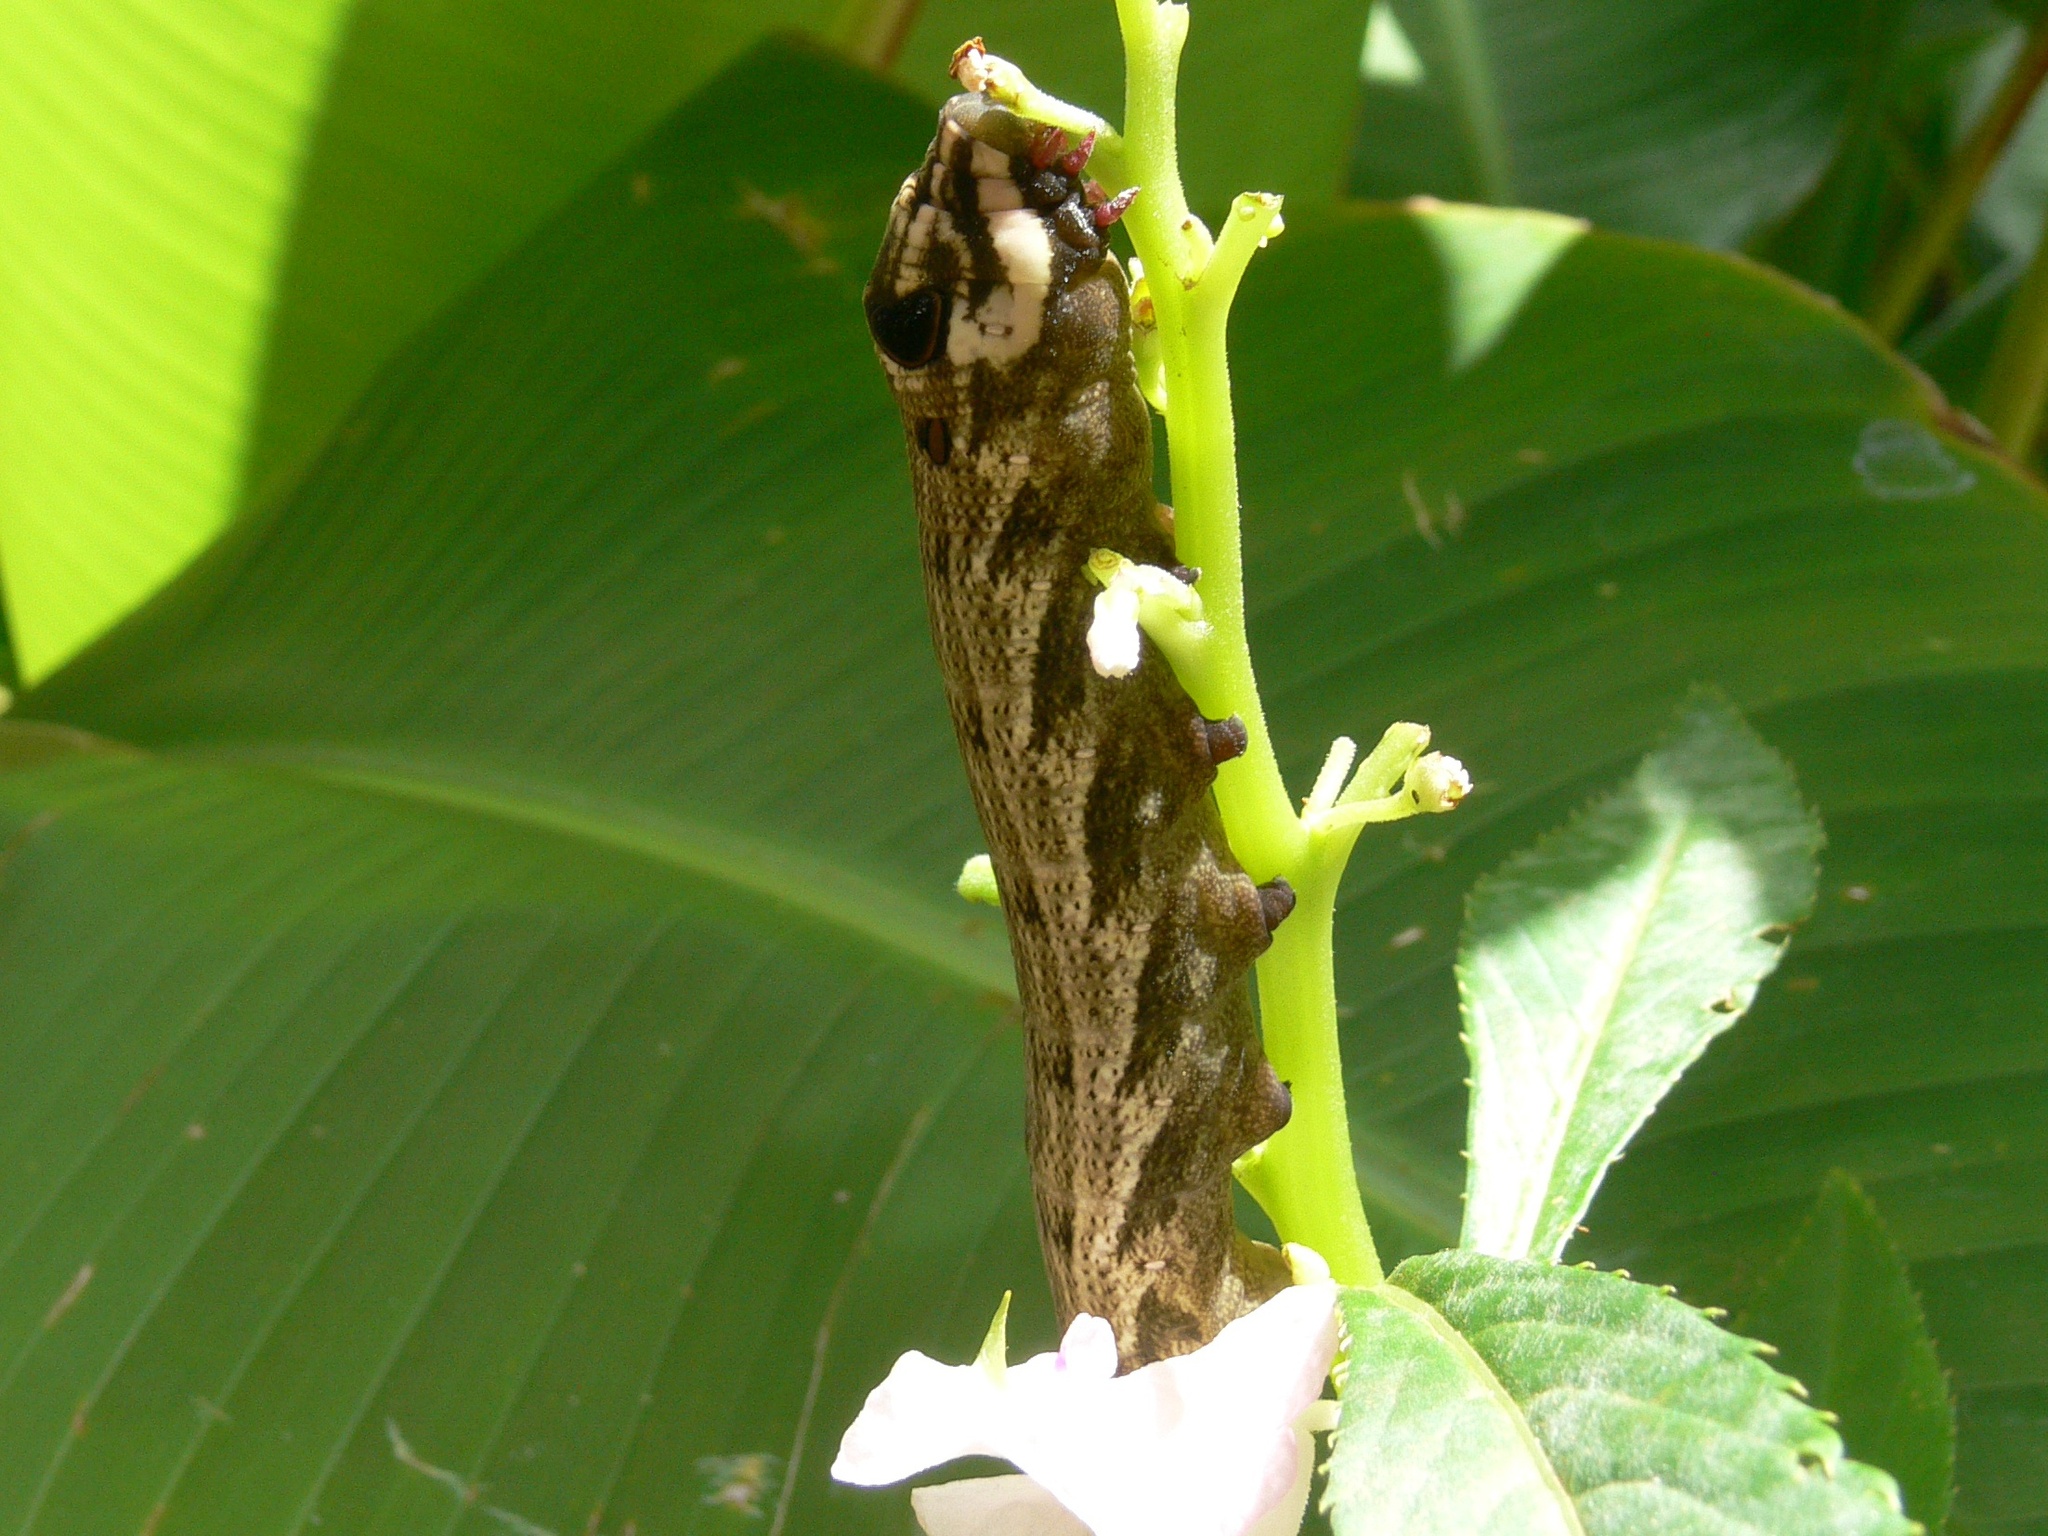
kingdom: Animalia
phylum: Arthropoda
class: Insecta
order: Lepidoptera
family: Sphingidae
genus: Hippotion
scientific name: Hippotion geryon
